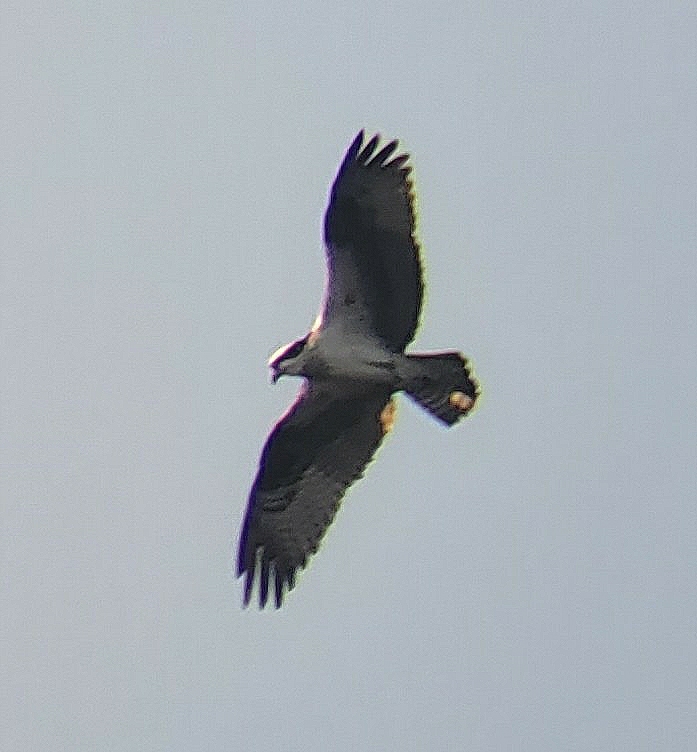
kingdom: Animalia
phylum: Chordata
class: Aves
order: Accipitriformes
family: Pandionidae
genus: Pandion
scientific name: Pandion haliaetus
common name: Osprey
